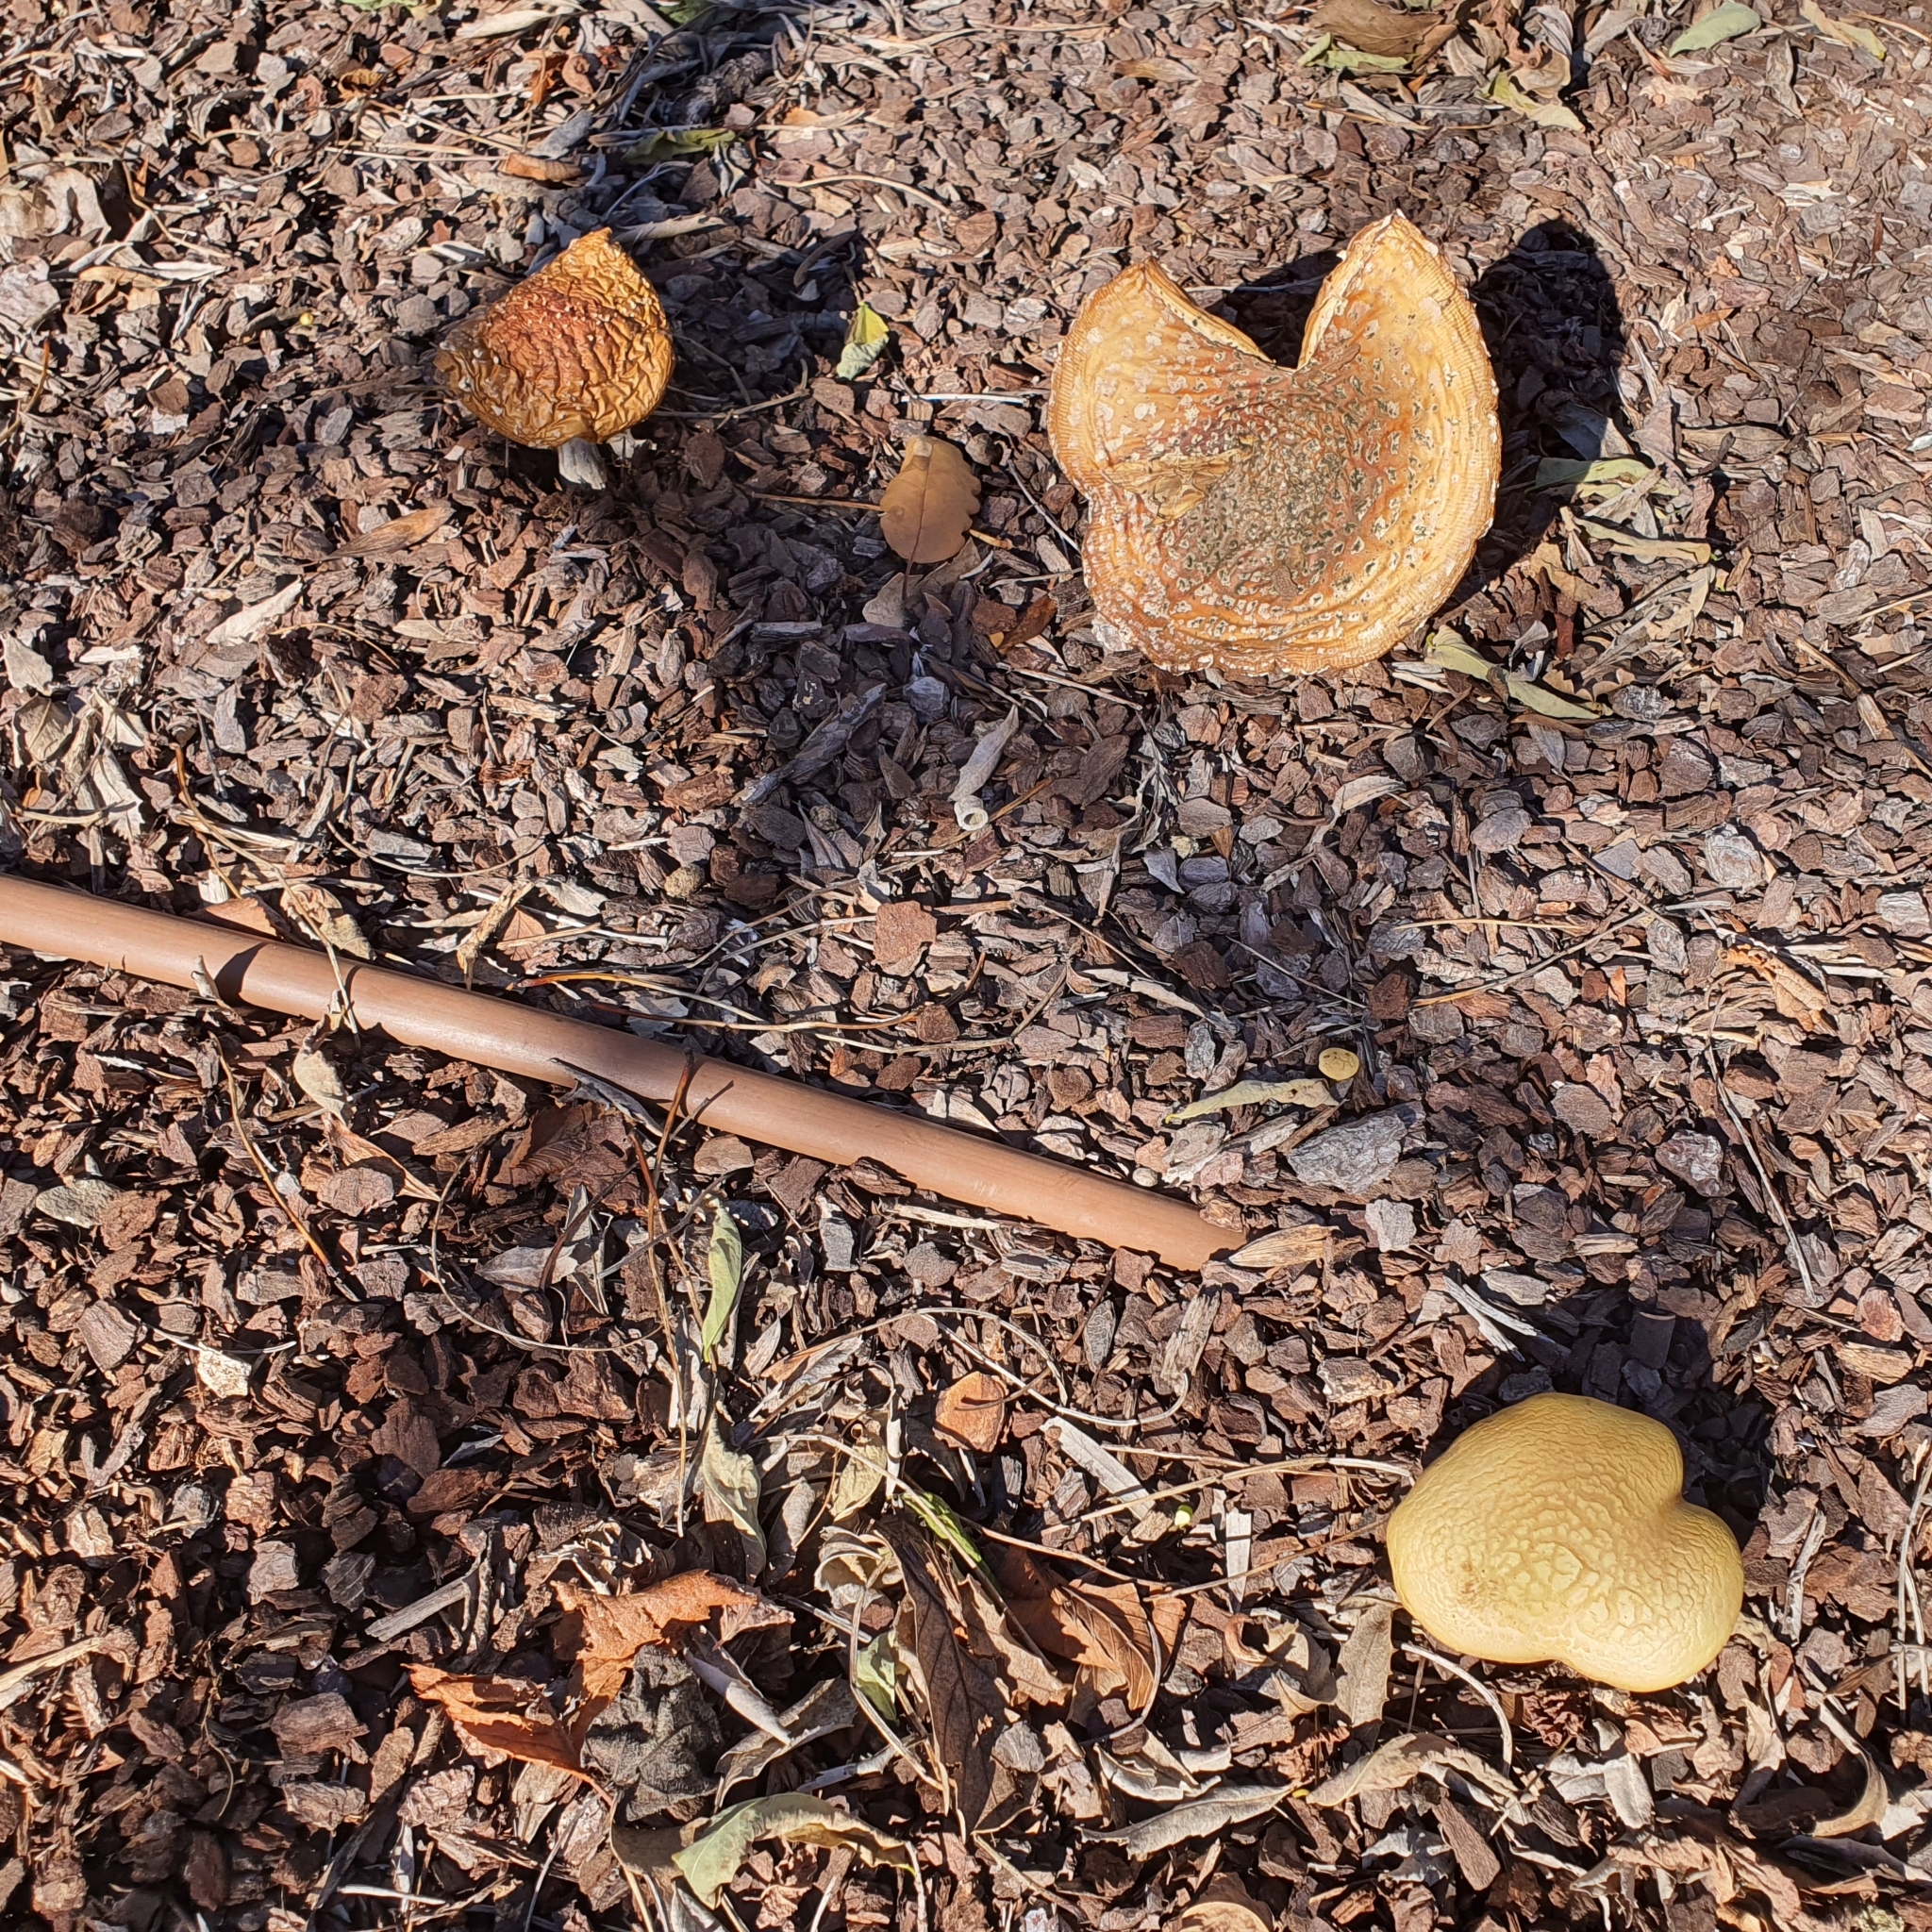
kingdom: Fungi
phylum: Basidiomycota
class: Agaricomycetes
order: Agaricales
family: Amanitaceae
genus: Amanita
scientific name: Amanita muscaria
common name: Fly agaric
